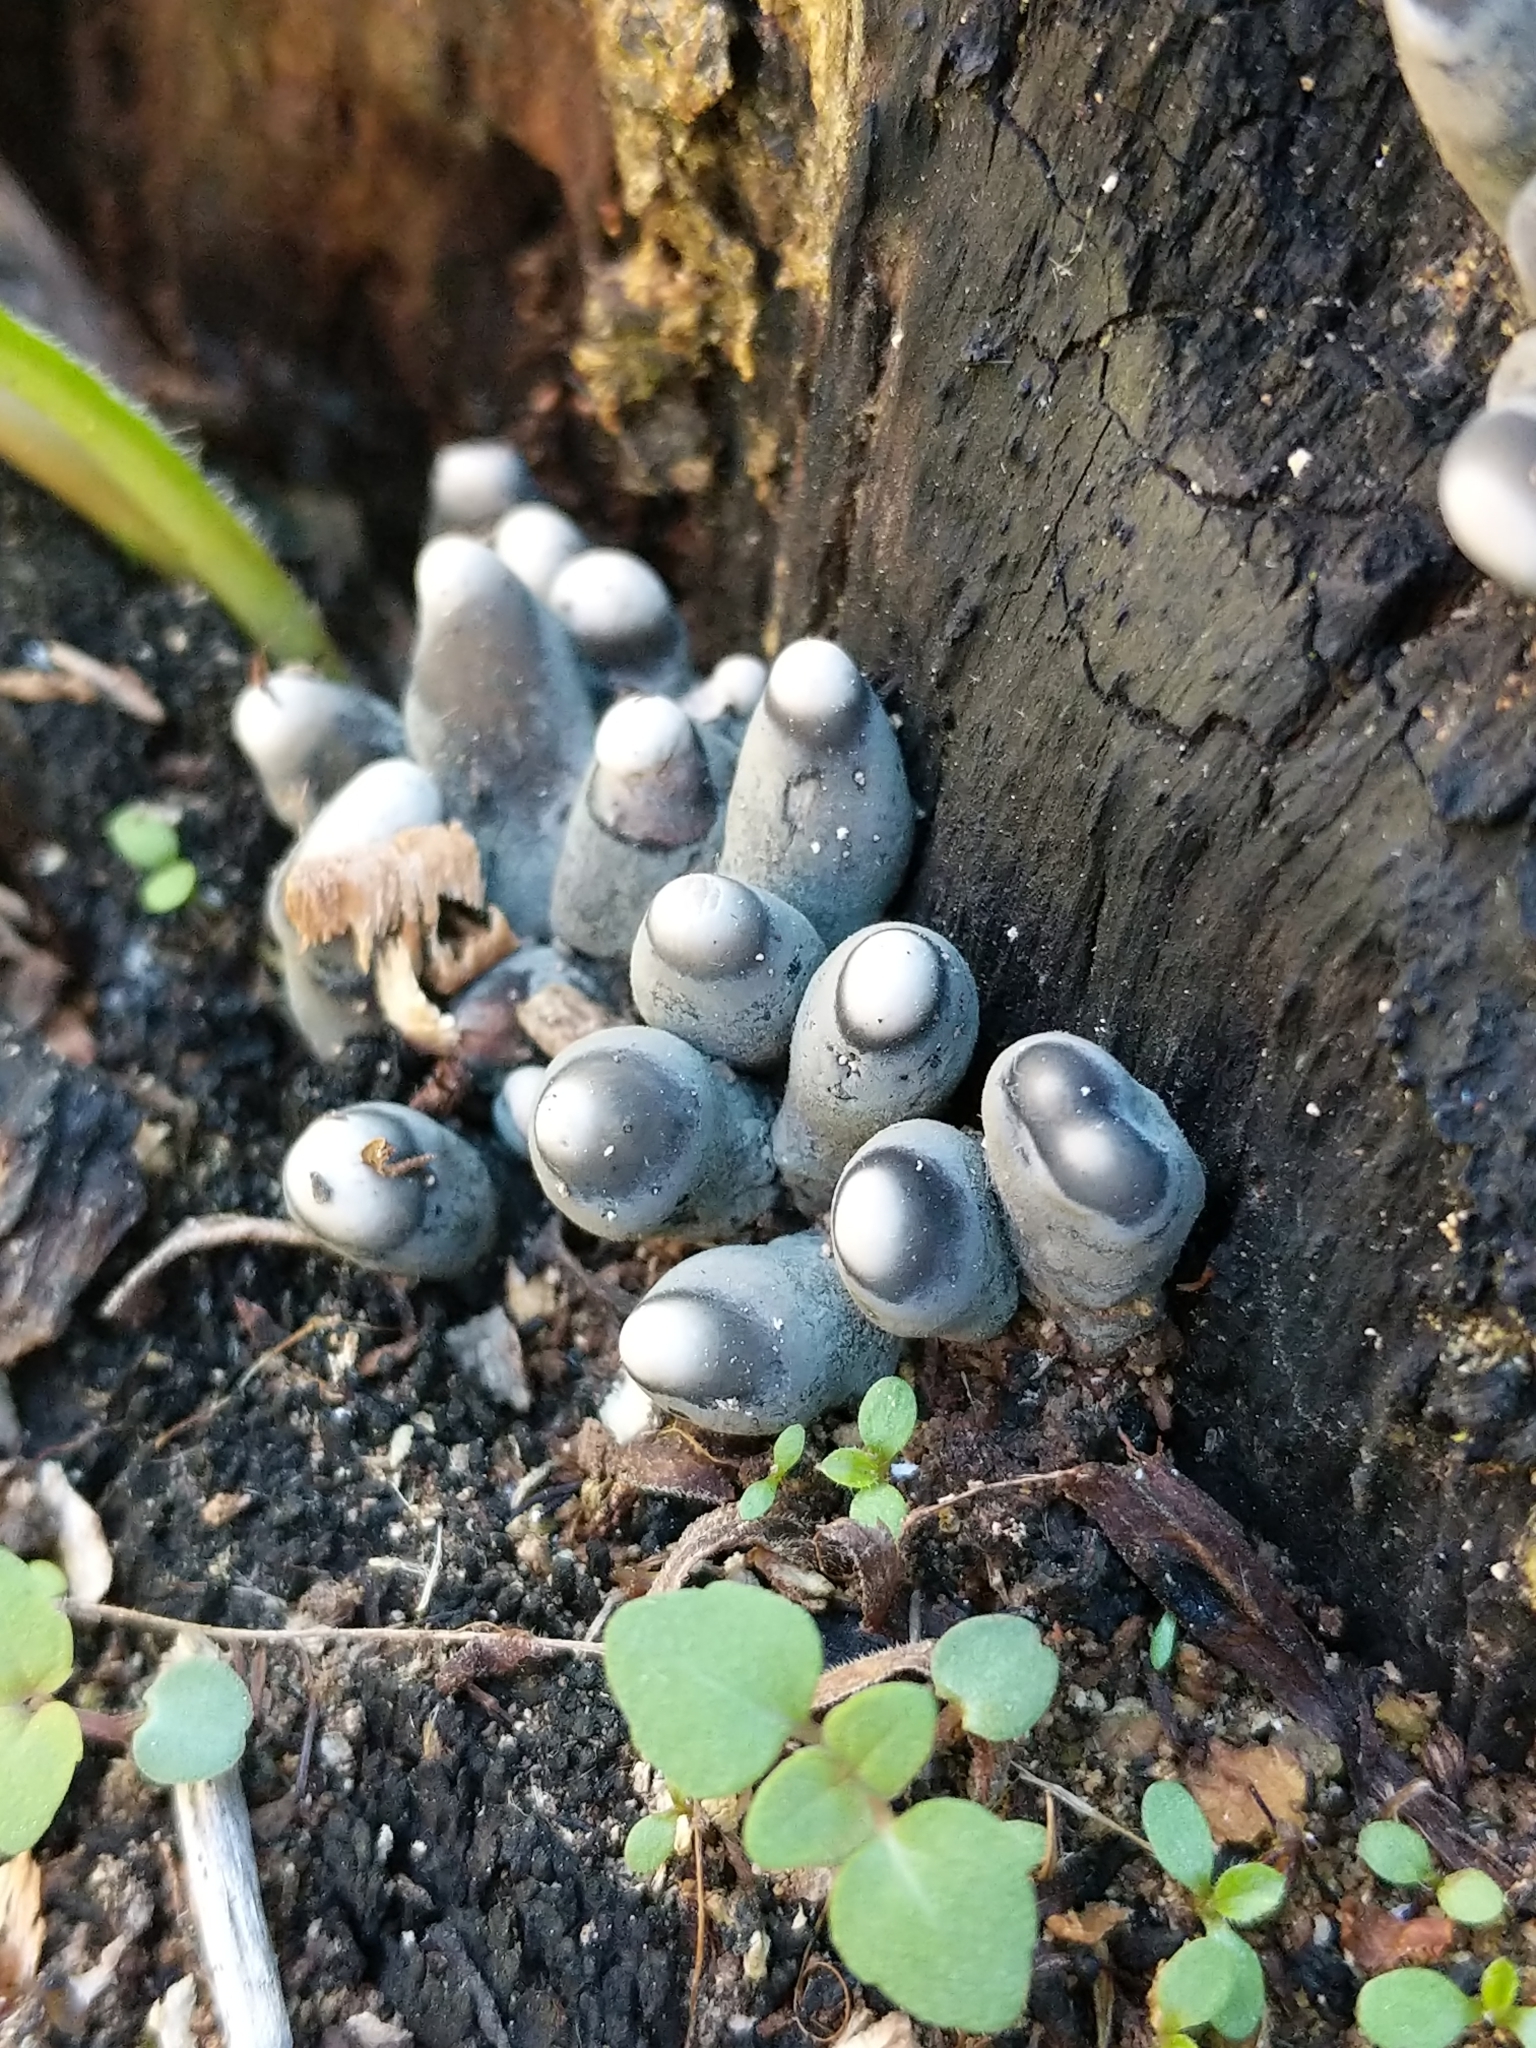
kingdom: Fungi
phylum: Ascomycota
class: Sordariomycetes
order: Xylariales
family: Xylariaceae
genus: Xylaria
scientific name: Xylaria polymorpha
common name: Dead man's fingers
